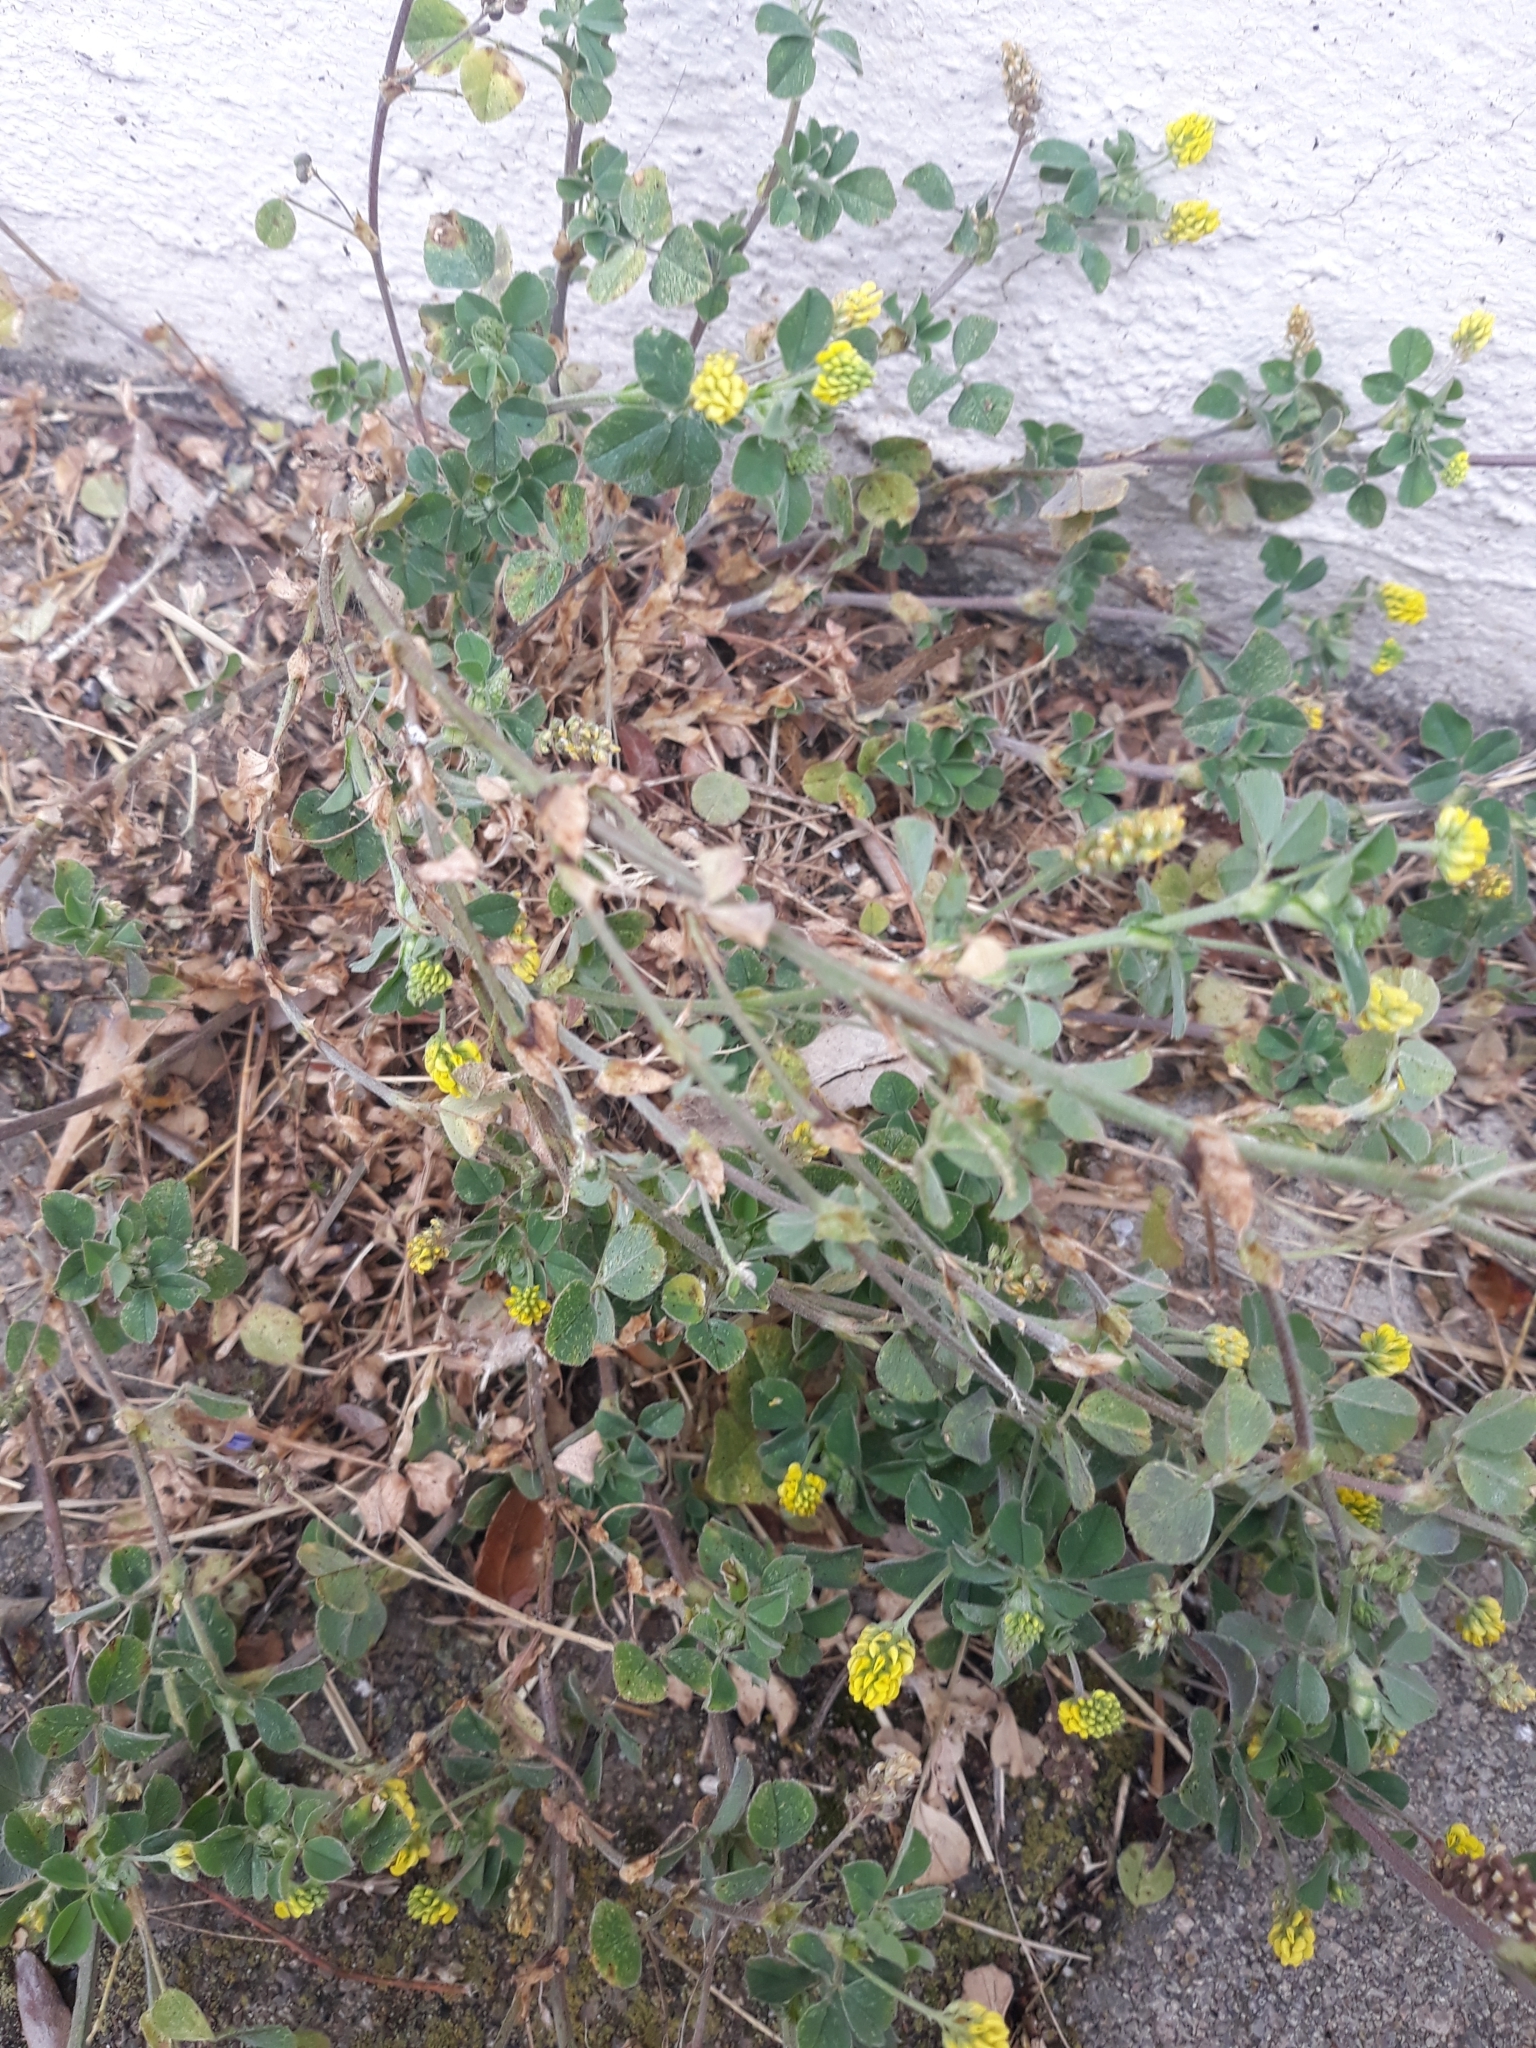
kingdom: Plantae
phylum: Tracheophyta
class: Magnoliopsida
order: Fabales
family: Fabaceae
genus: Medicago
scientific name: Medicago lupulina
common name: Black medick
